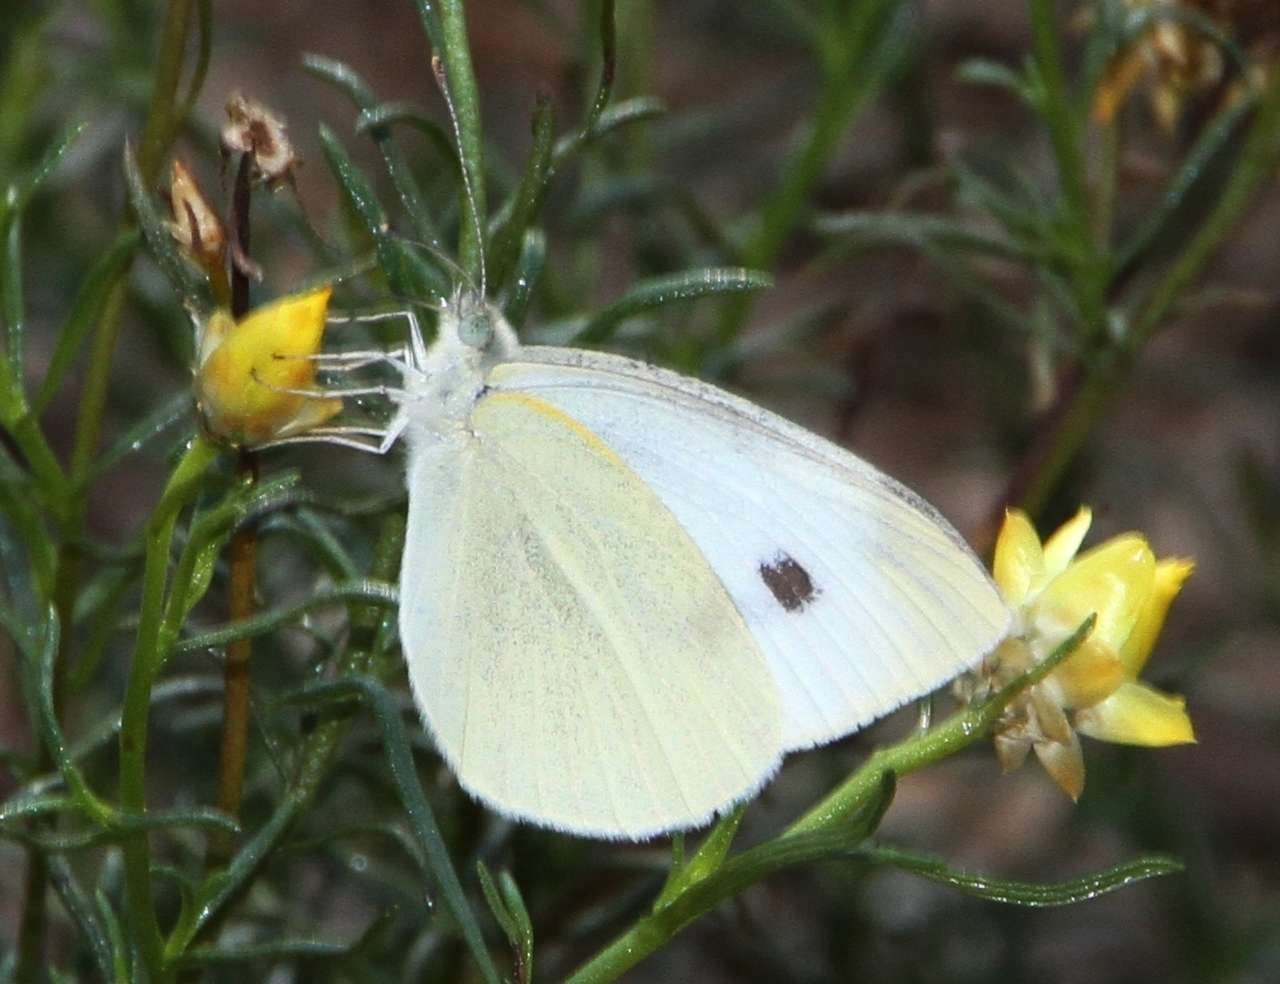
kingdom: Animalia
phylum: Arthropoda
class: Insecta
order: Lepidoptera
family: Pieridae
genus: Pieris
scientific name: Pieris rapae
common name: Small white
